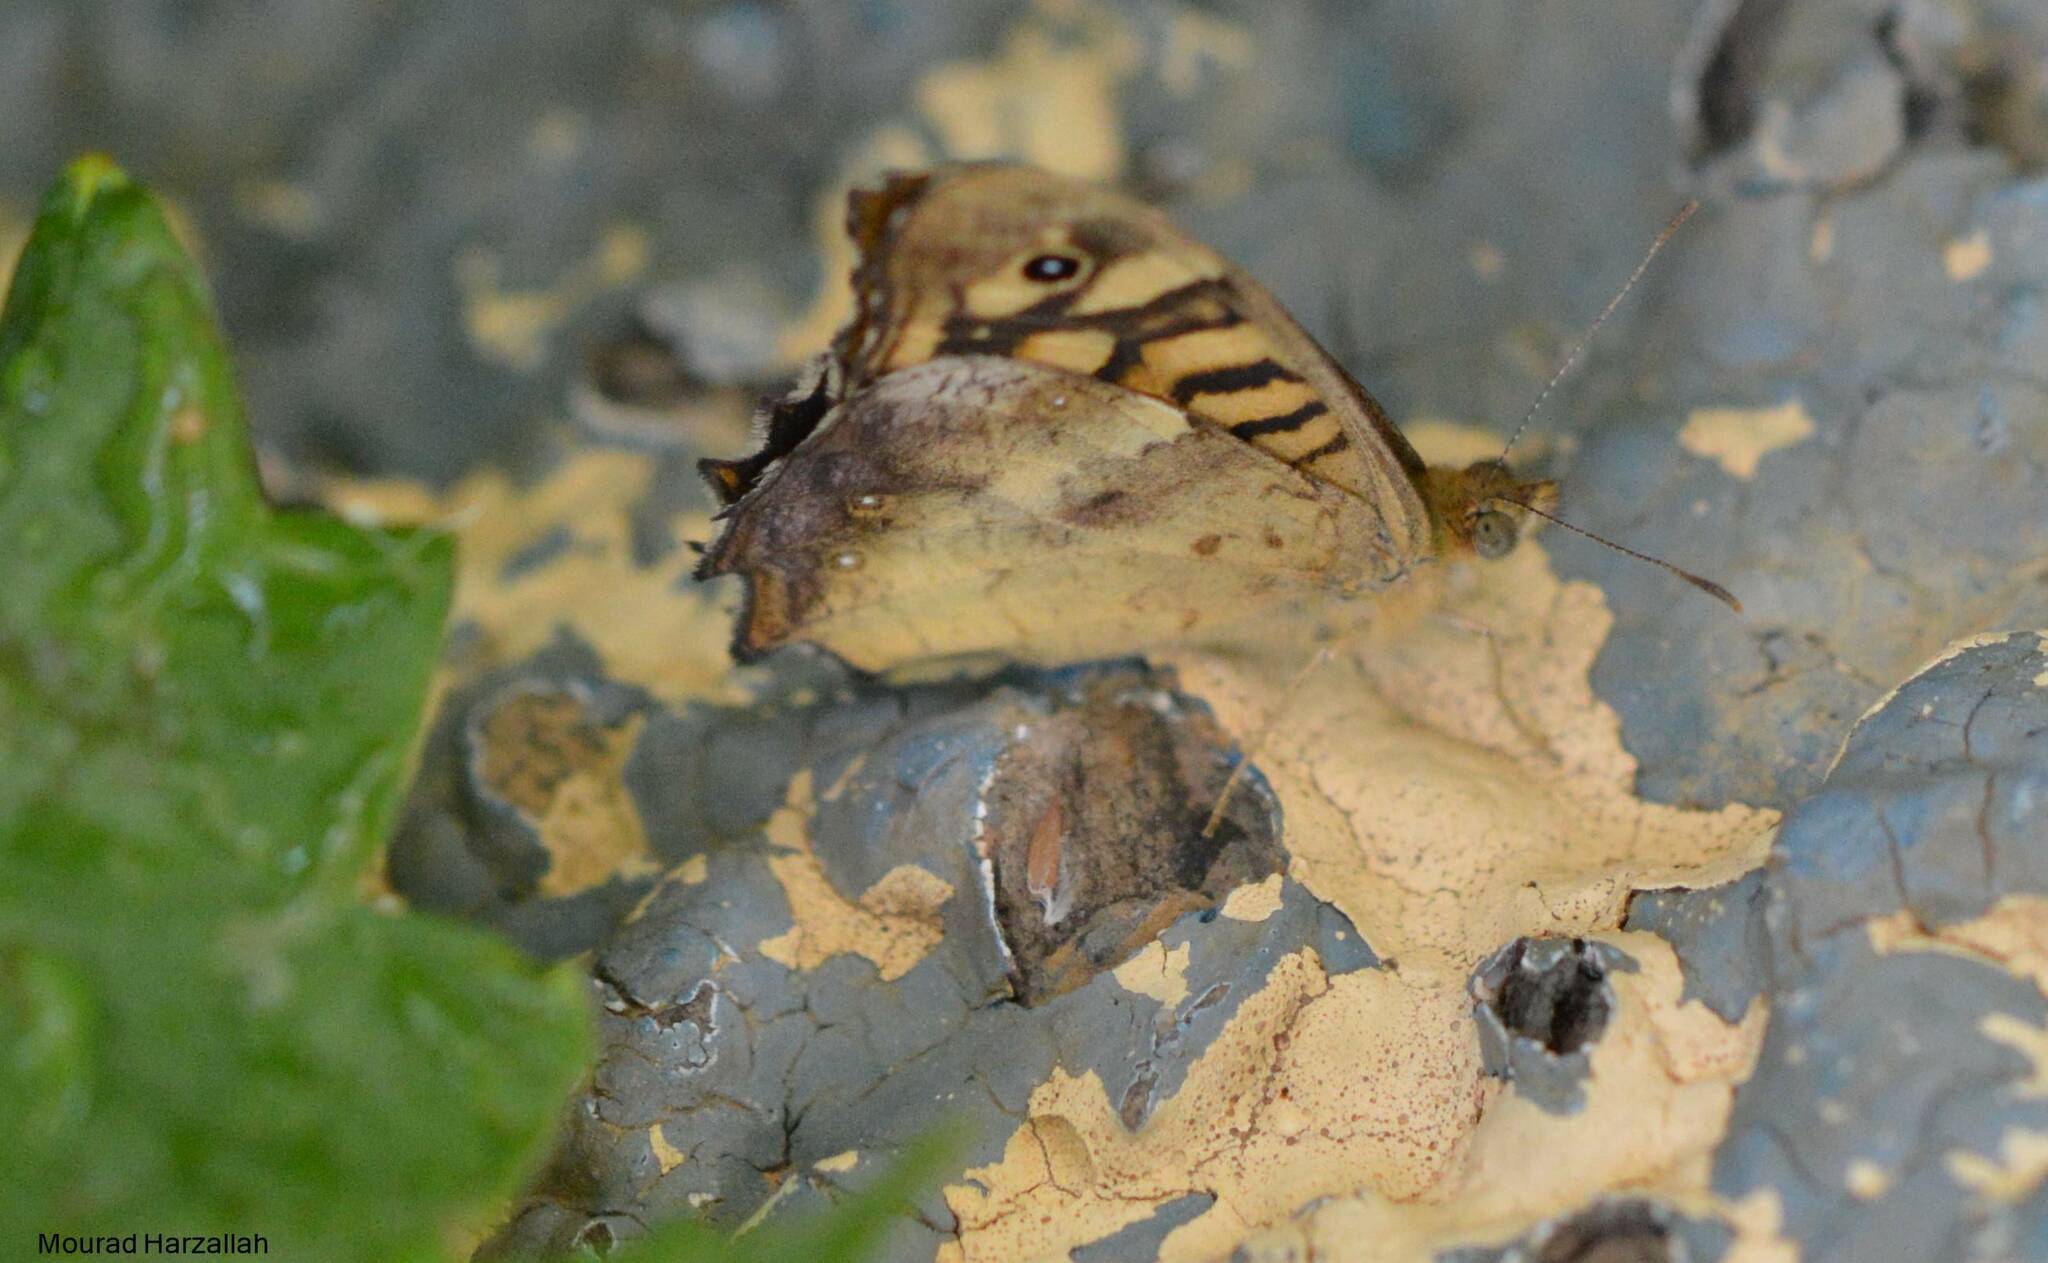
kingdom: Animalia
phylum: Arthropoda
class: Insecta
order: Lepidoptera
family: Nymphalidae
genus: Pararge
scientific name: Pararge aegeria
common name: Speckled wood
